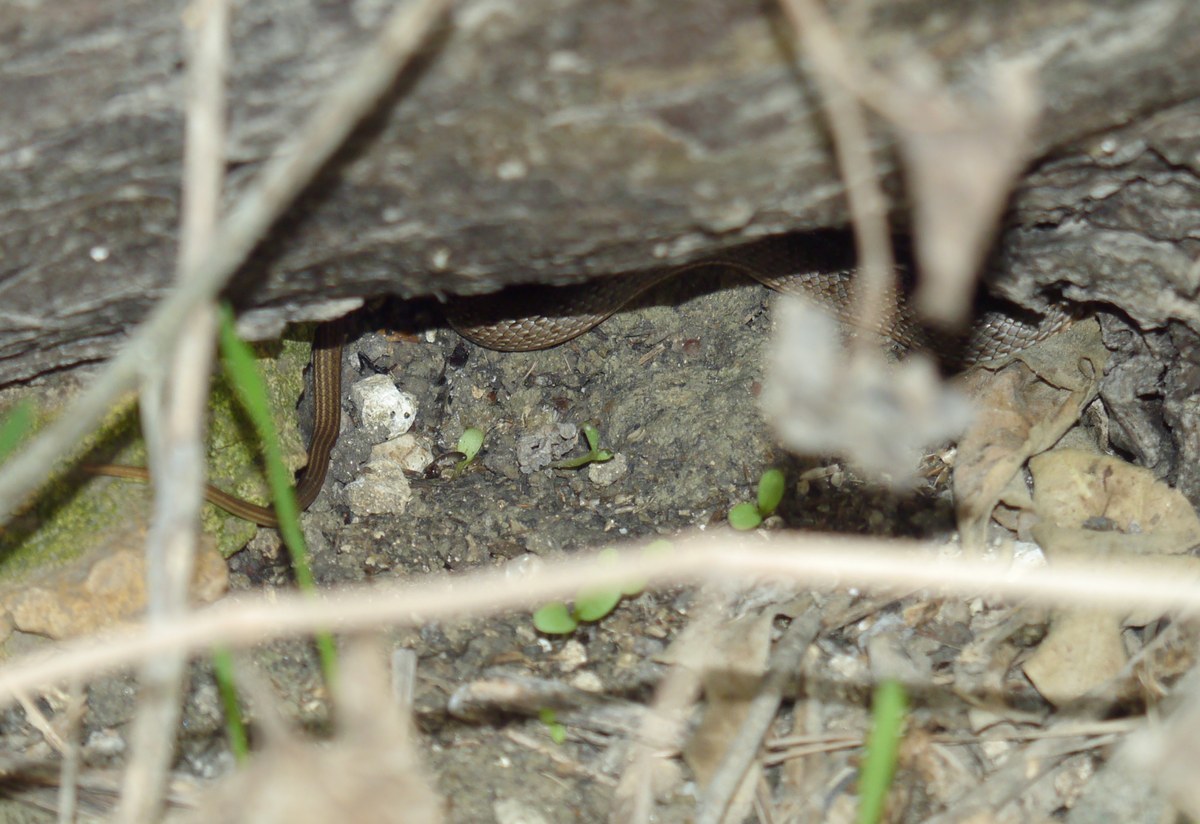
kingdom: Animalia
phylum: Chordata
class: Squamata
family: Colubridae
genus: Dolichophis
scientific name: Dolichophis caspius
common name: Large whip snake
